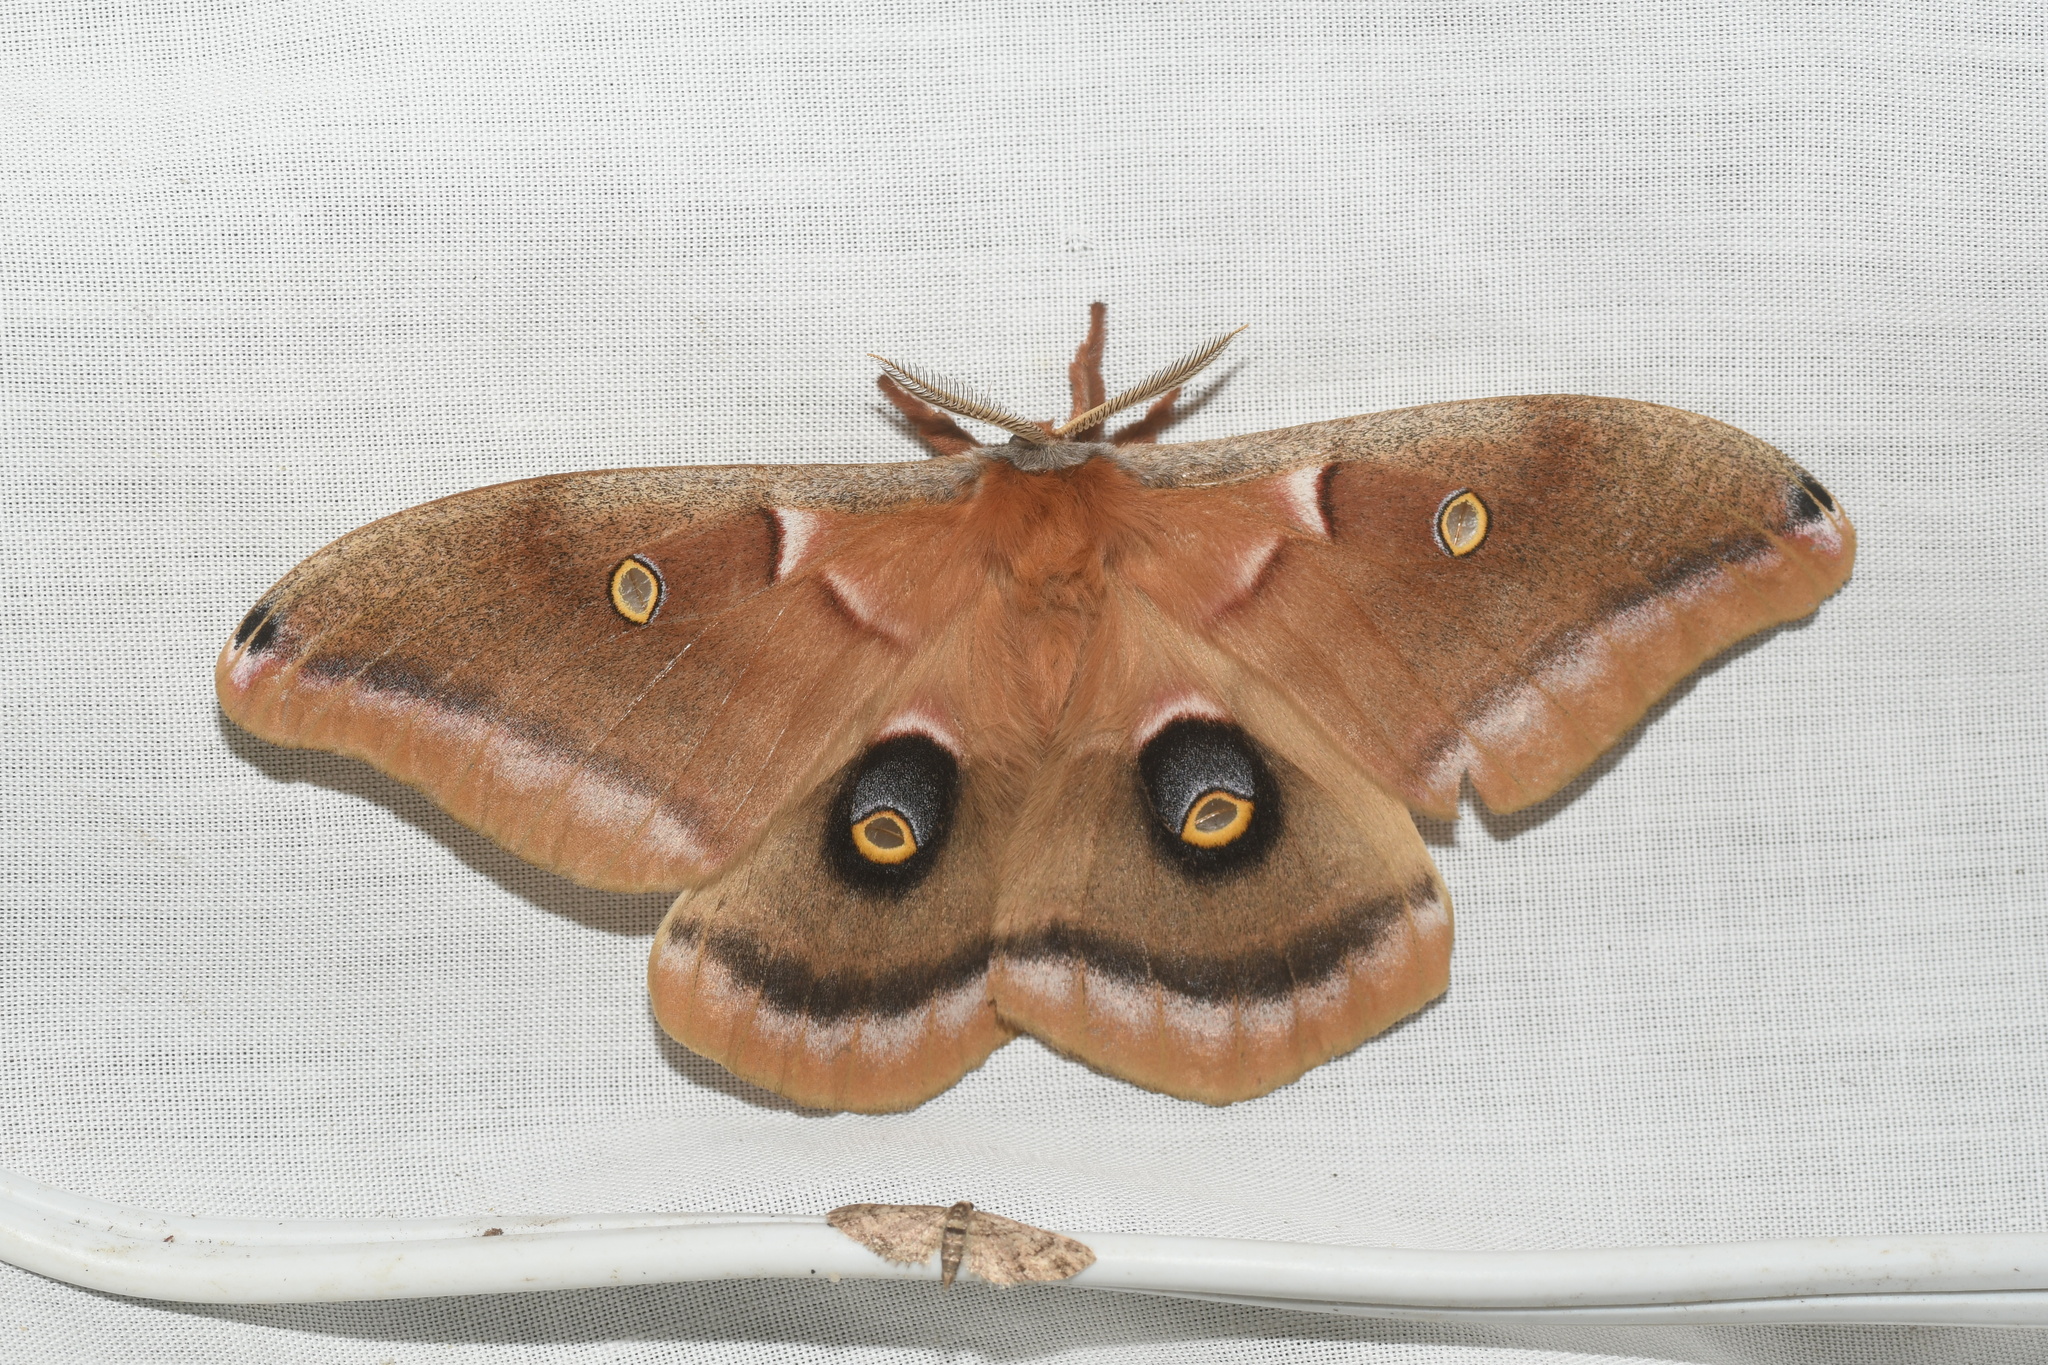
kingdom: Animalia
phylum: Arthropoda
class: Insecta
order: Lepidoptera
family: Saturniidae
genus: Antheraea
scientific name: Antheraea polyphemus
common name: Polyphemus moth
